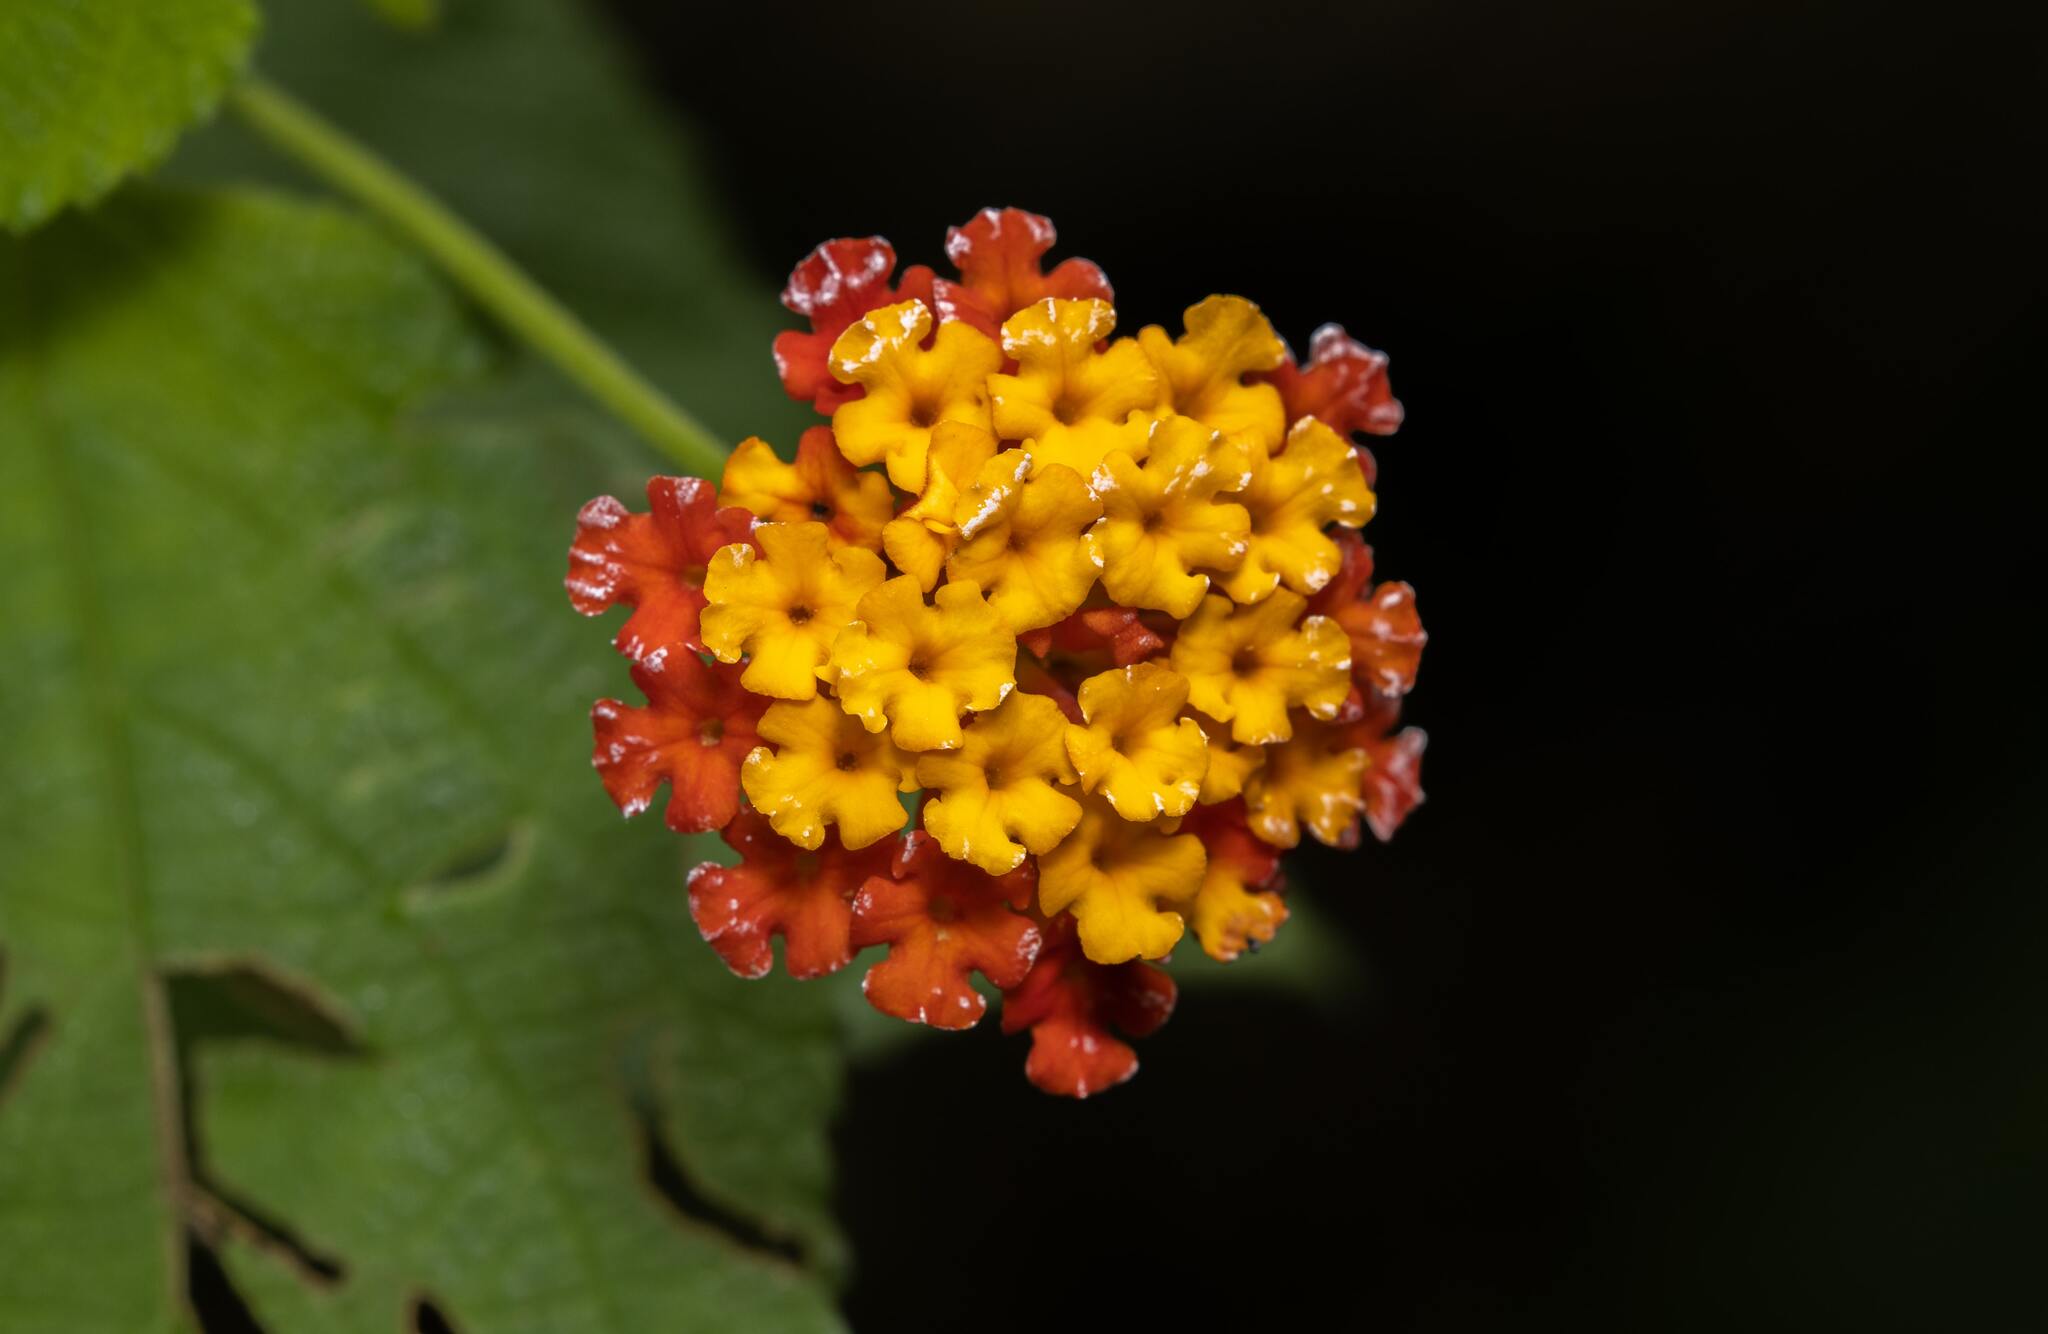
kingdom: Plantae
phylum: Tracheophyta
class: Magnoliopsida
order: Lamiales
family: Verbenaceae
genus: Lantana
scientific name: Lantana camara
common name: Lantana
